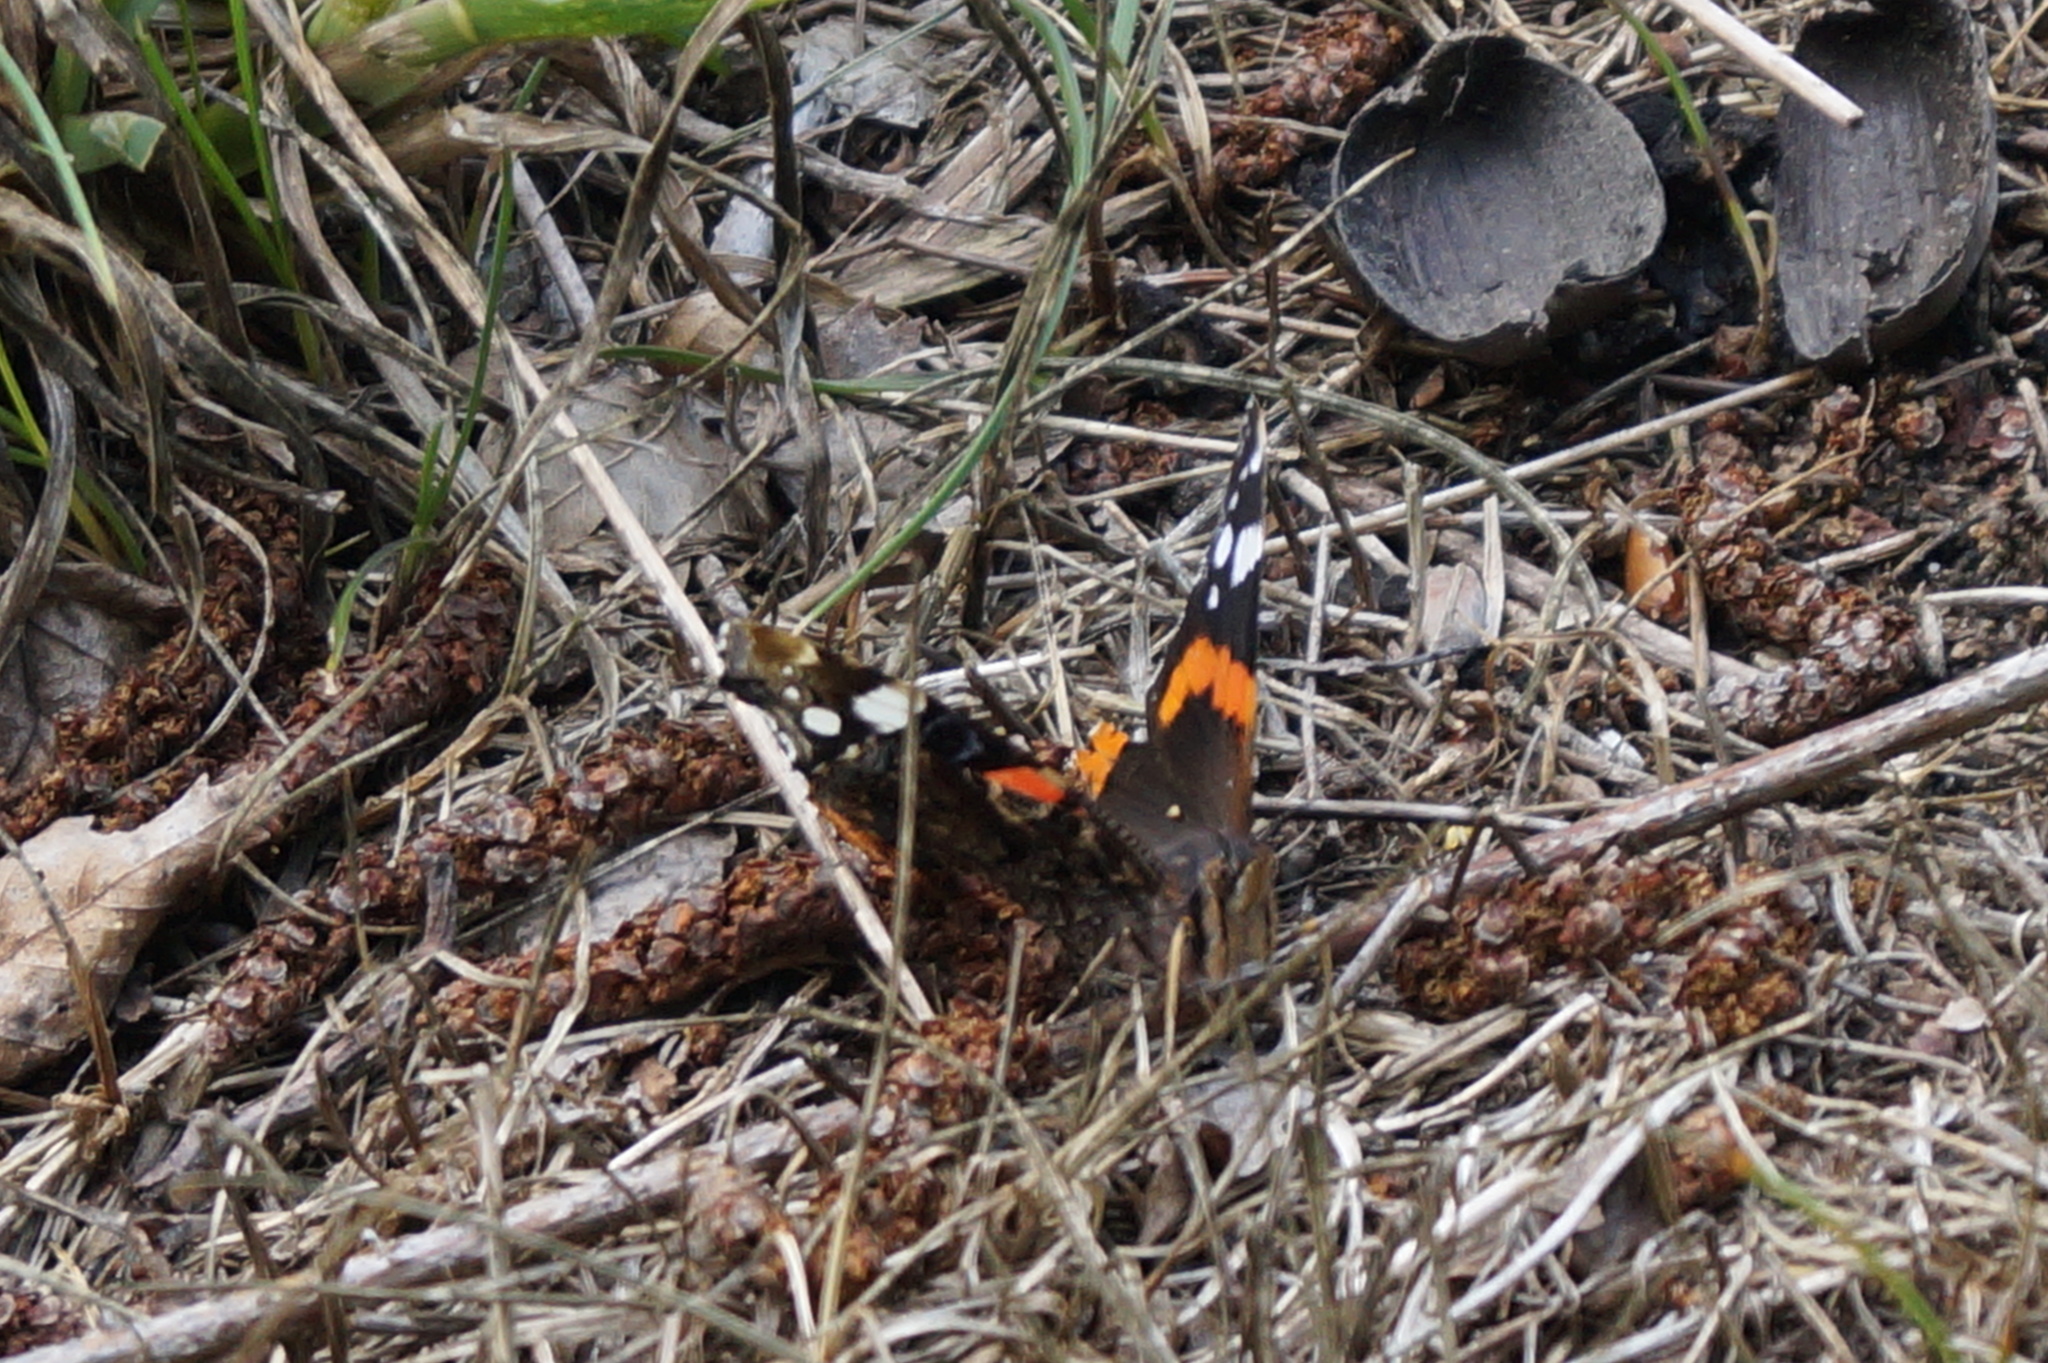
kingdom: Animalia
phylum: Arthropoda
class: Insecta
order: Lepidoptera
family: Nymphalidae
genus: Vanessa
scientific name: Vanessa atalanta
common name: Red admiral
